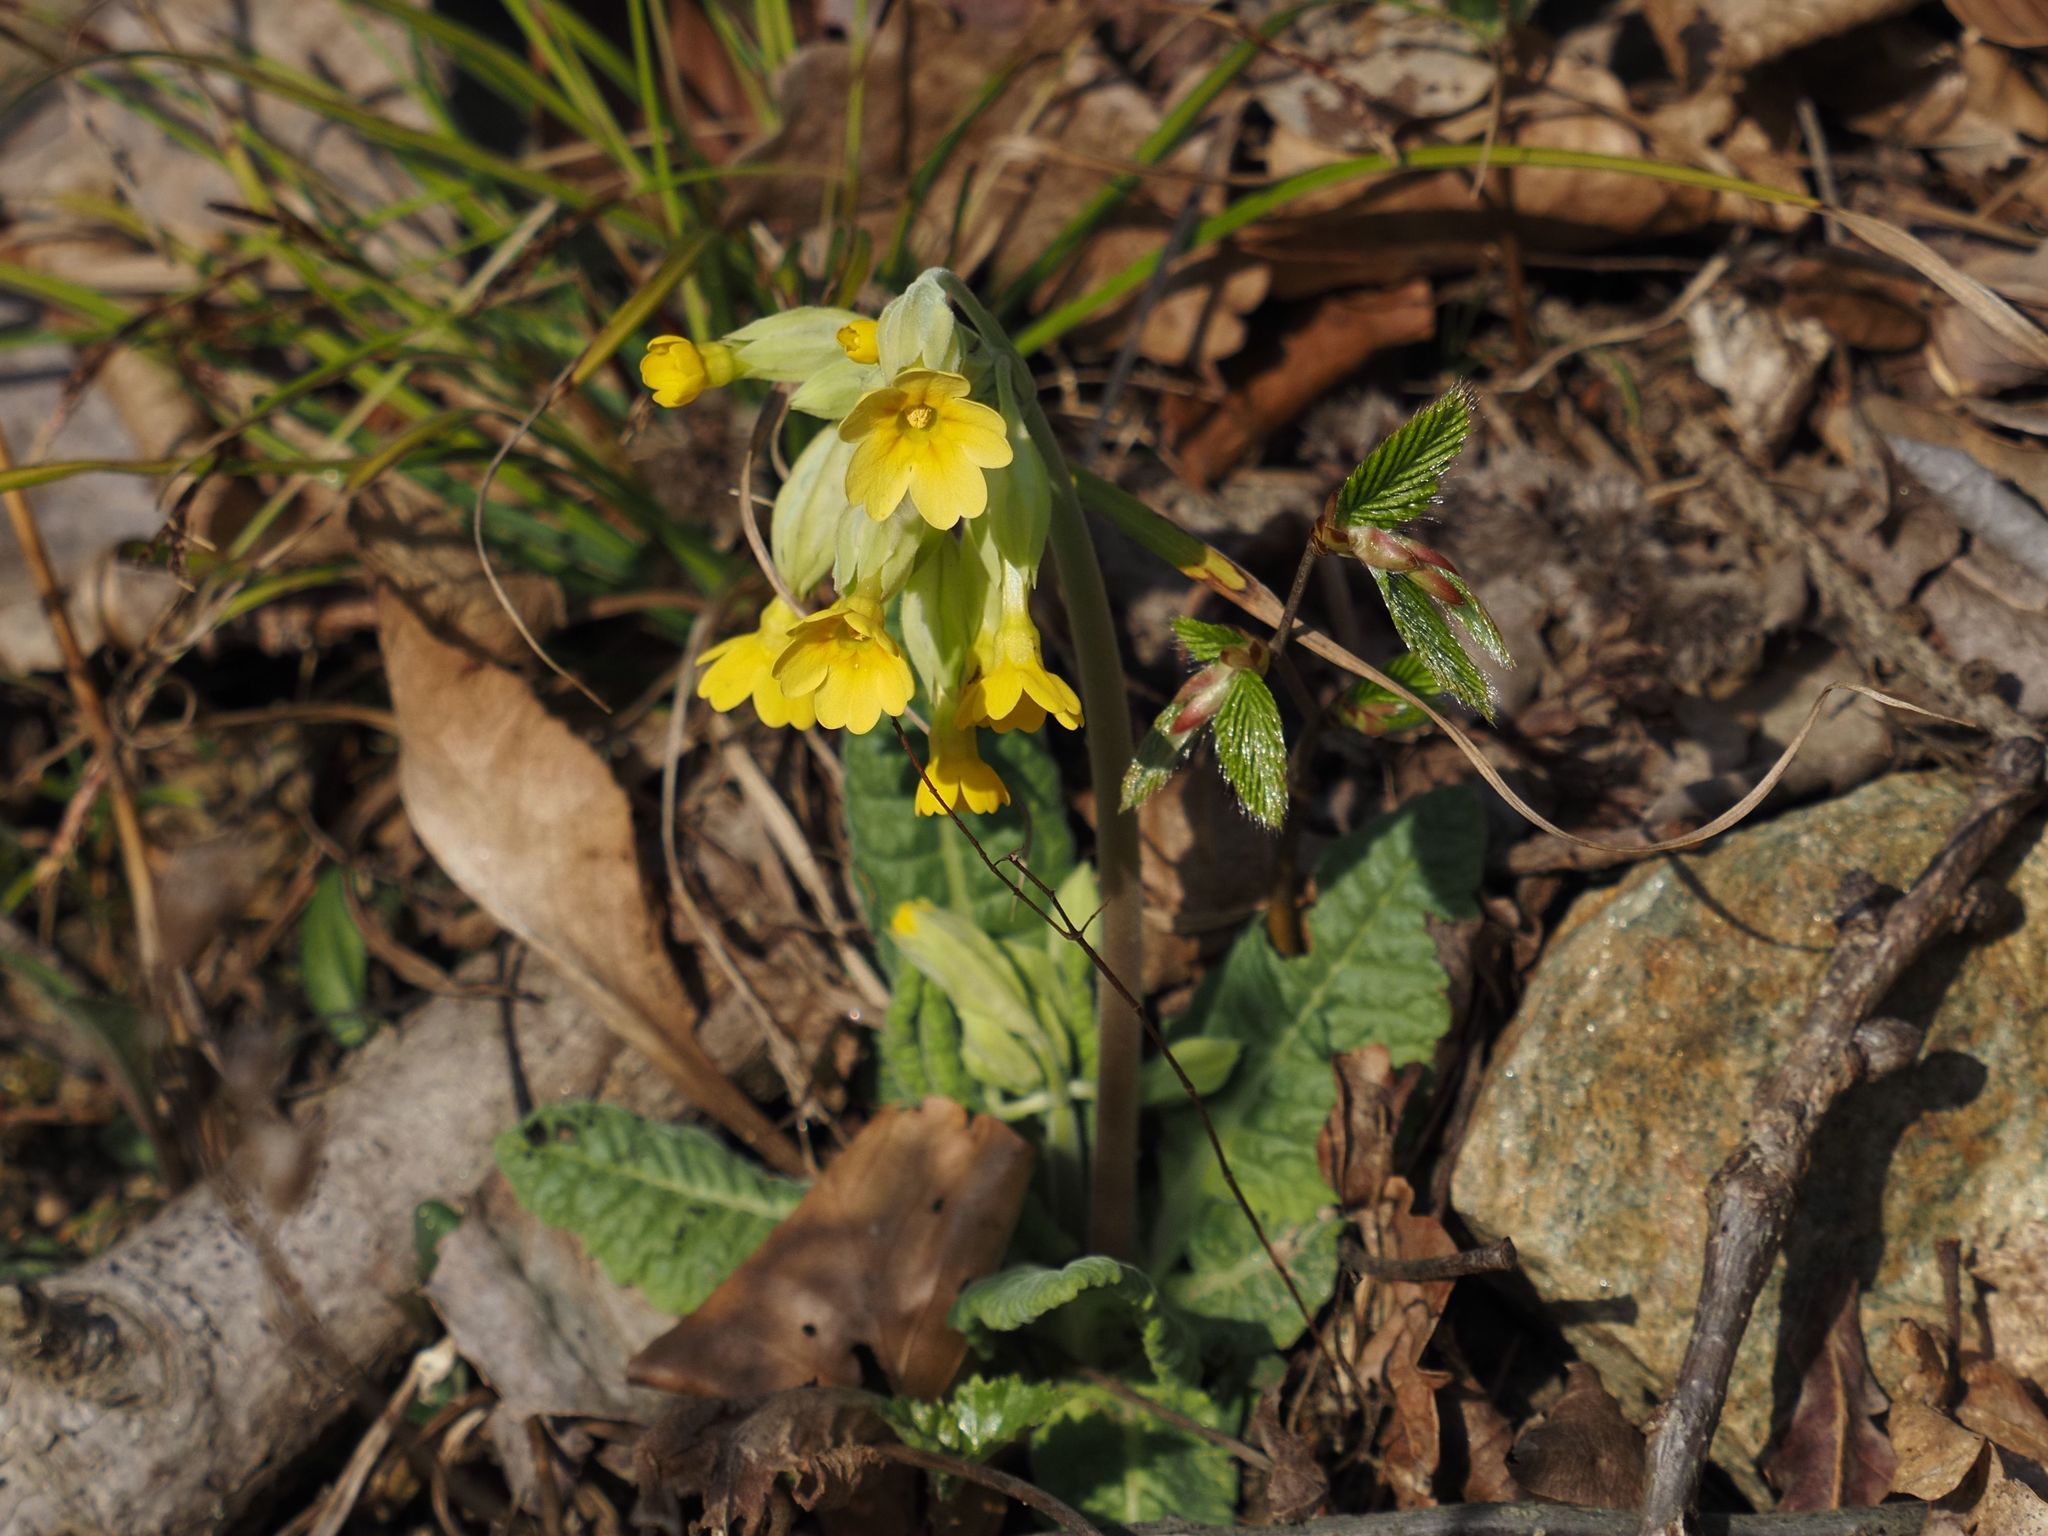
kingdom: Plantae
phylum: Tracheophyta
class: Magnoliopsida
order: Ericales
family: Primulaceae
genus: Primula
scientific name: Primula veris
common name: Cowslip
